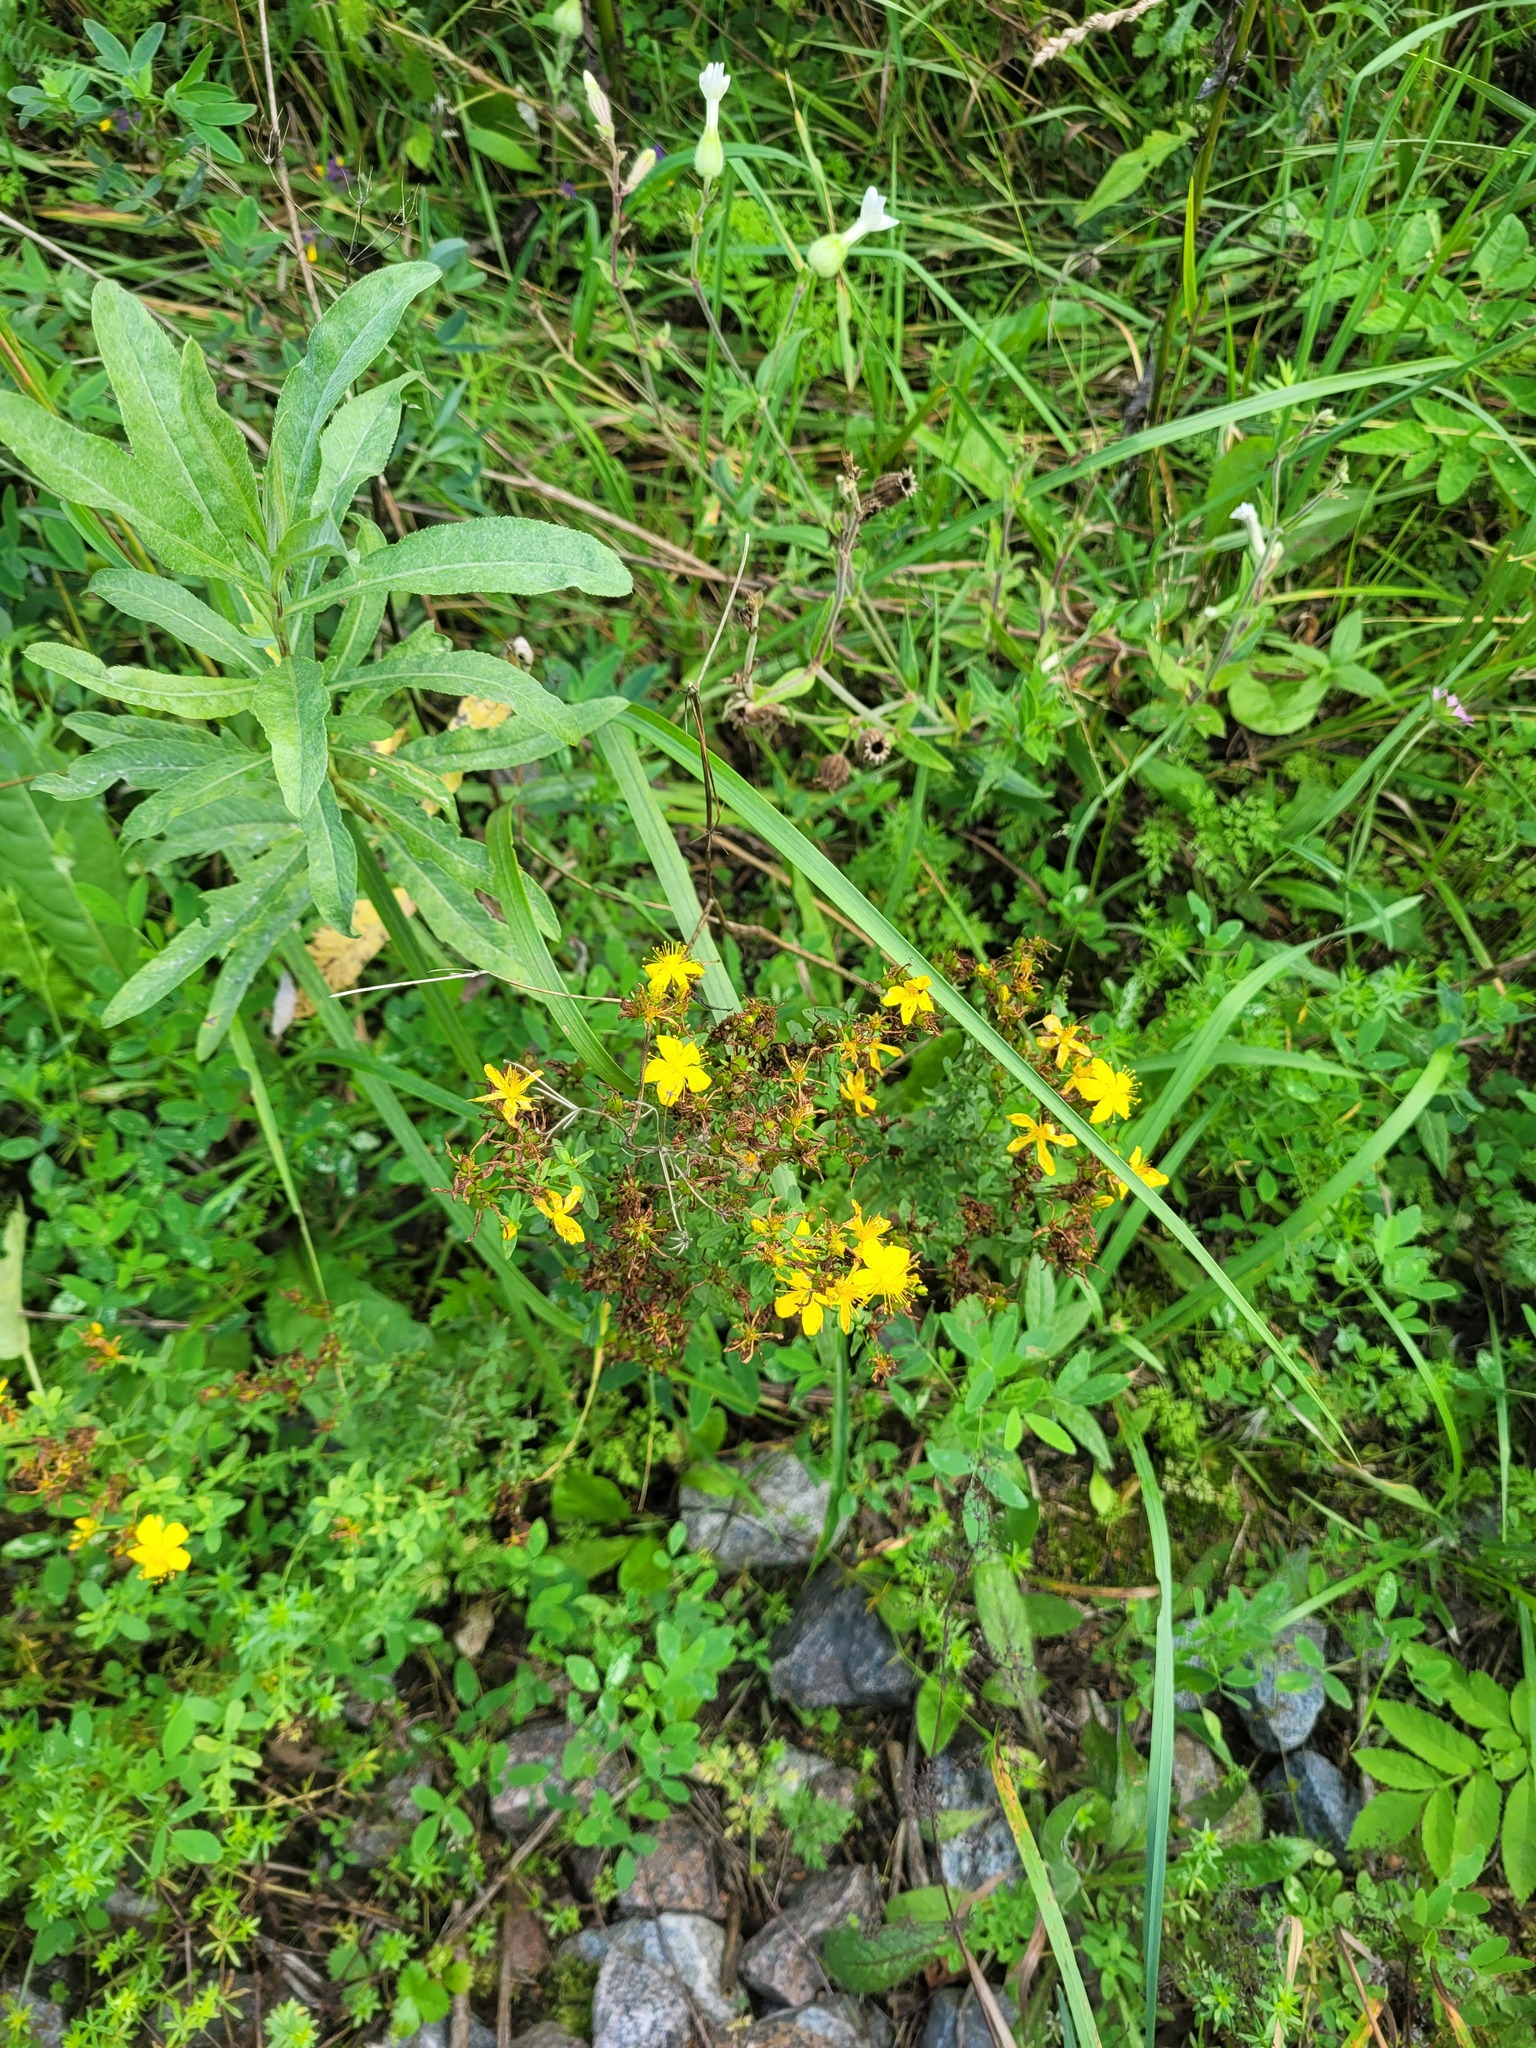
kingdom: Plantae
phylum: Tracheophyta
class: Magnoliopsida
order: Malpighiales
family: Hypericaceae
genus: Hypericum
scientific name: Hypericum perforatum
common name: Common st. johnswort
